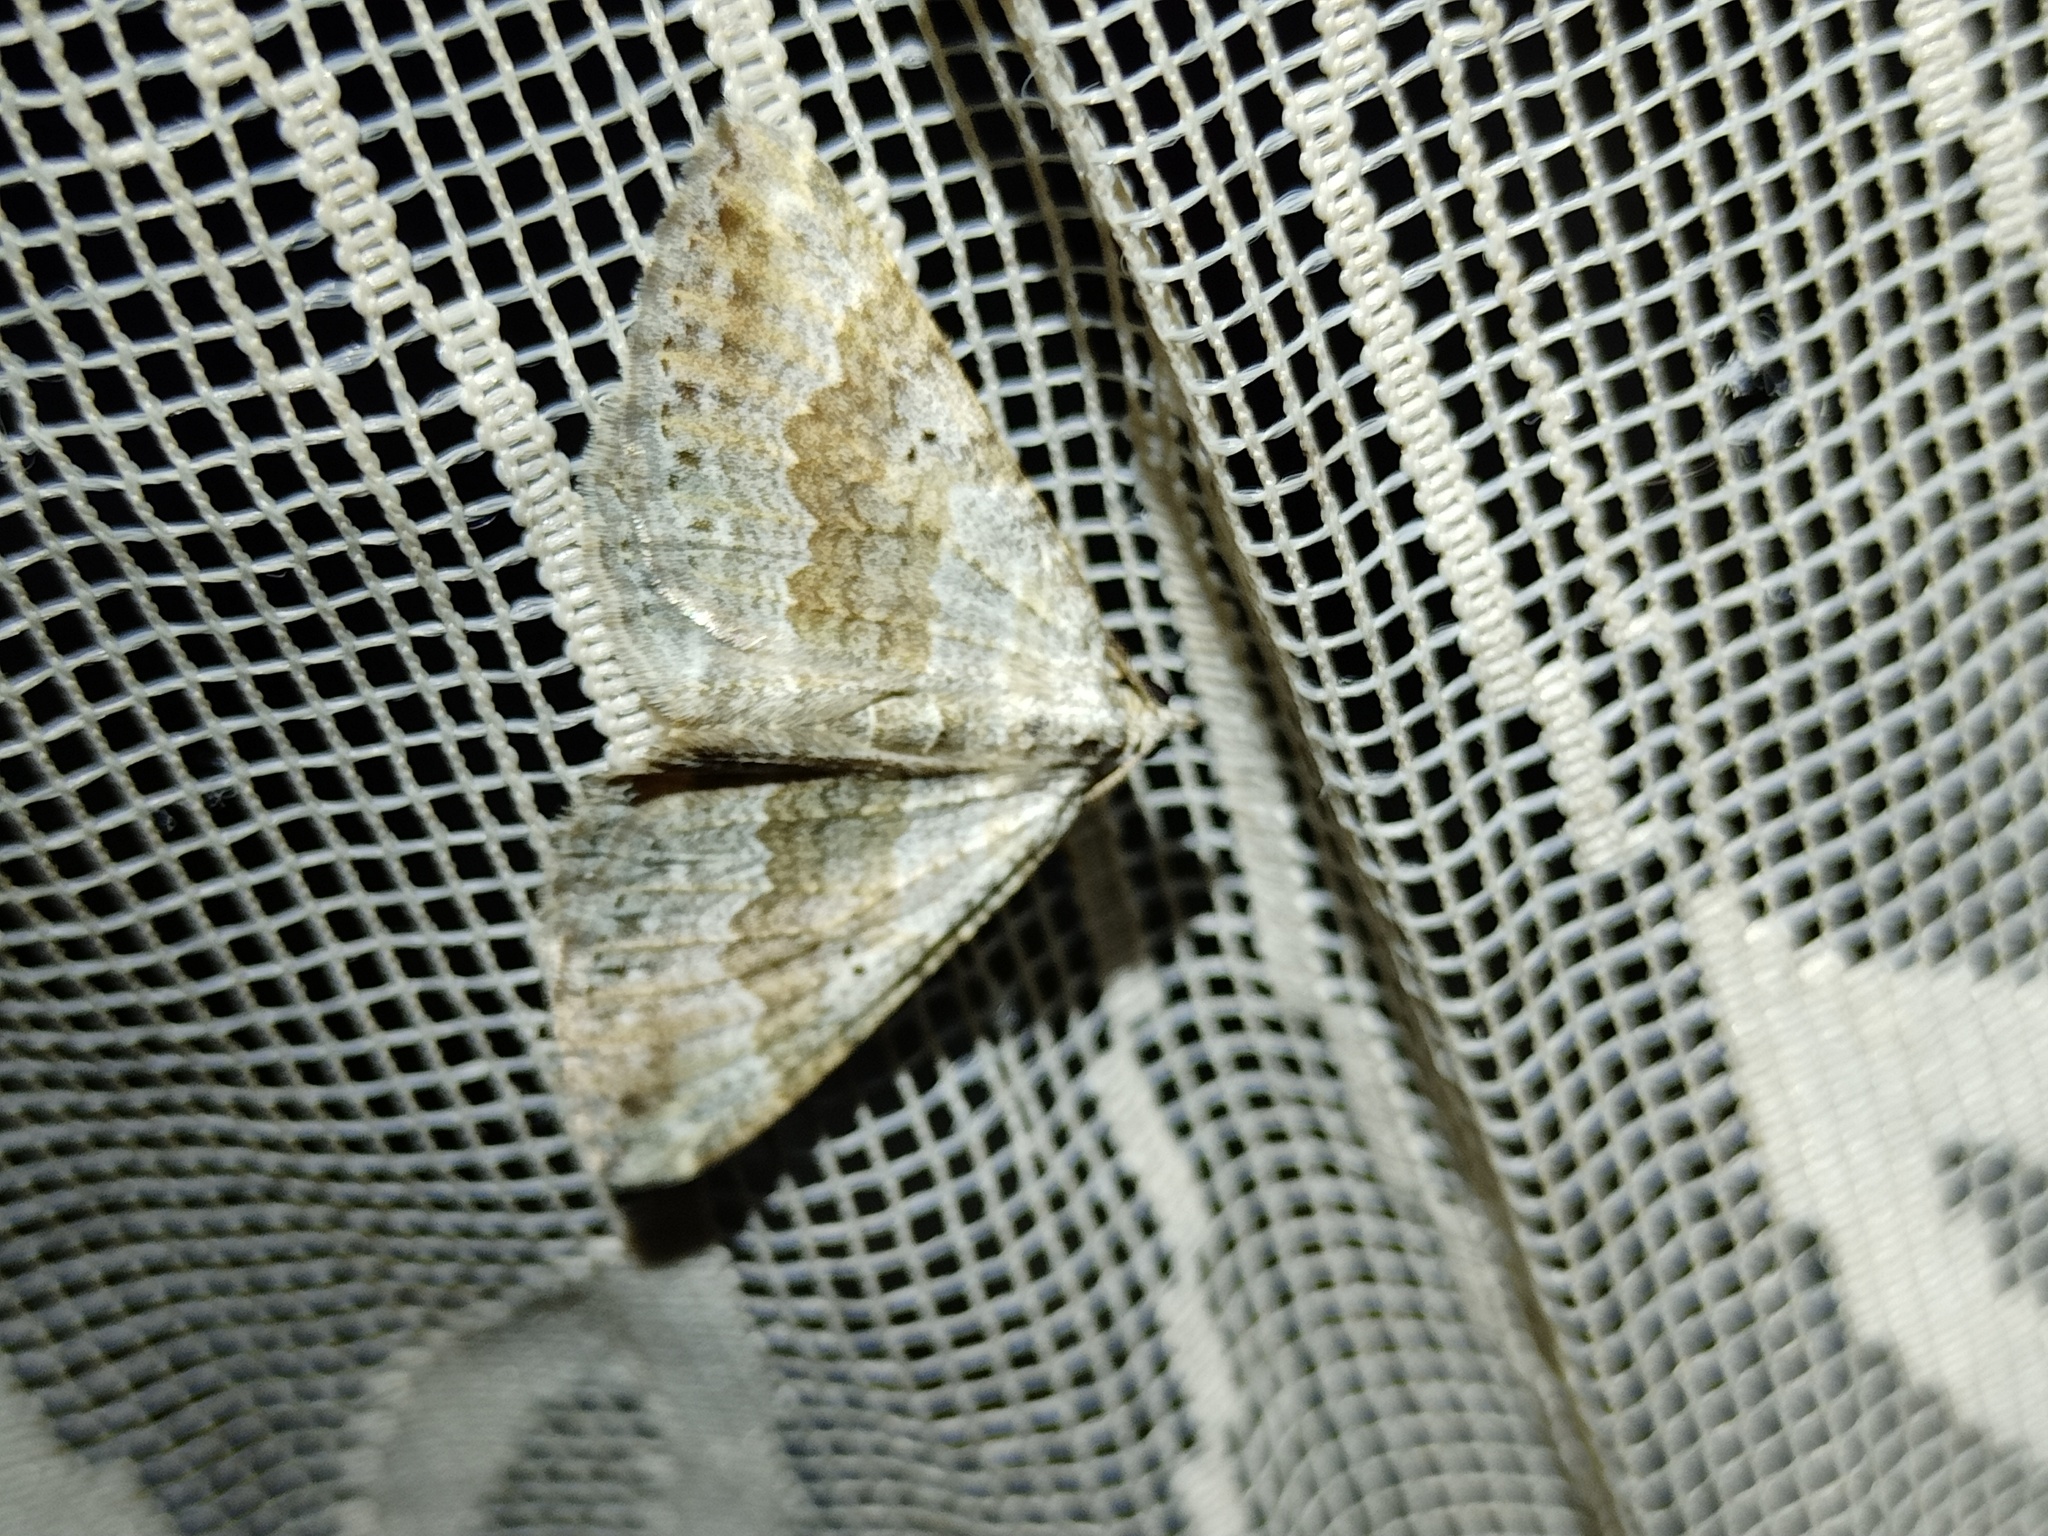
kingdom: Animalia
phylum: Arthropoda
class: Insecta
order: Lepidoptera
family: Geometridae
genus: Scotopteryx
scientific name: Scotopteryx bipunctaria
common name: Chalk carpet
